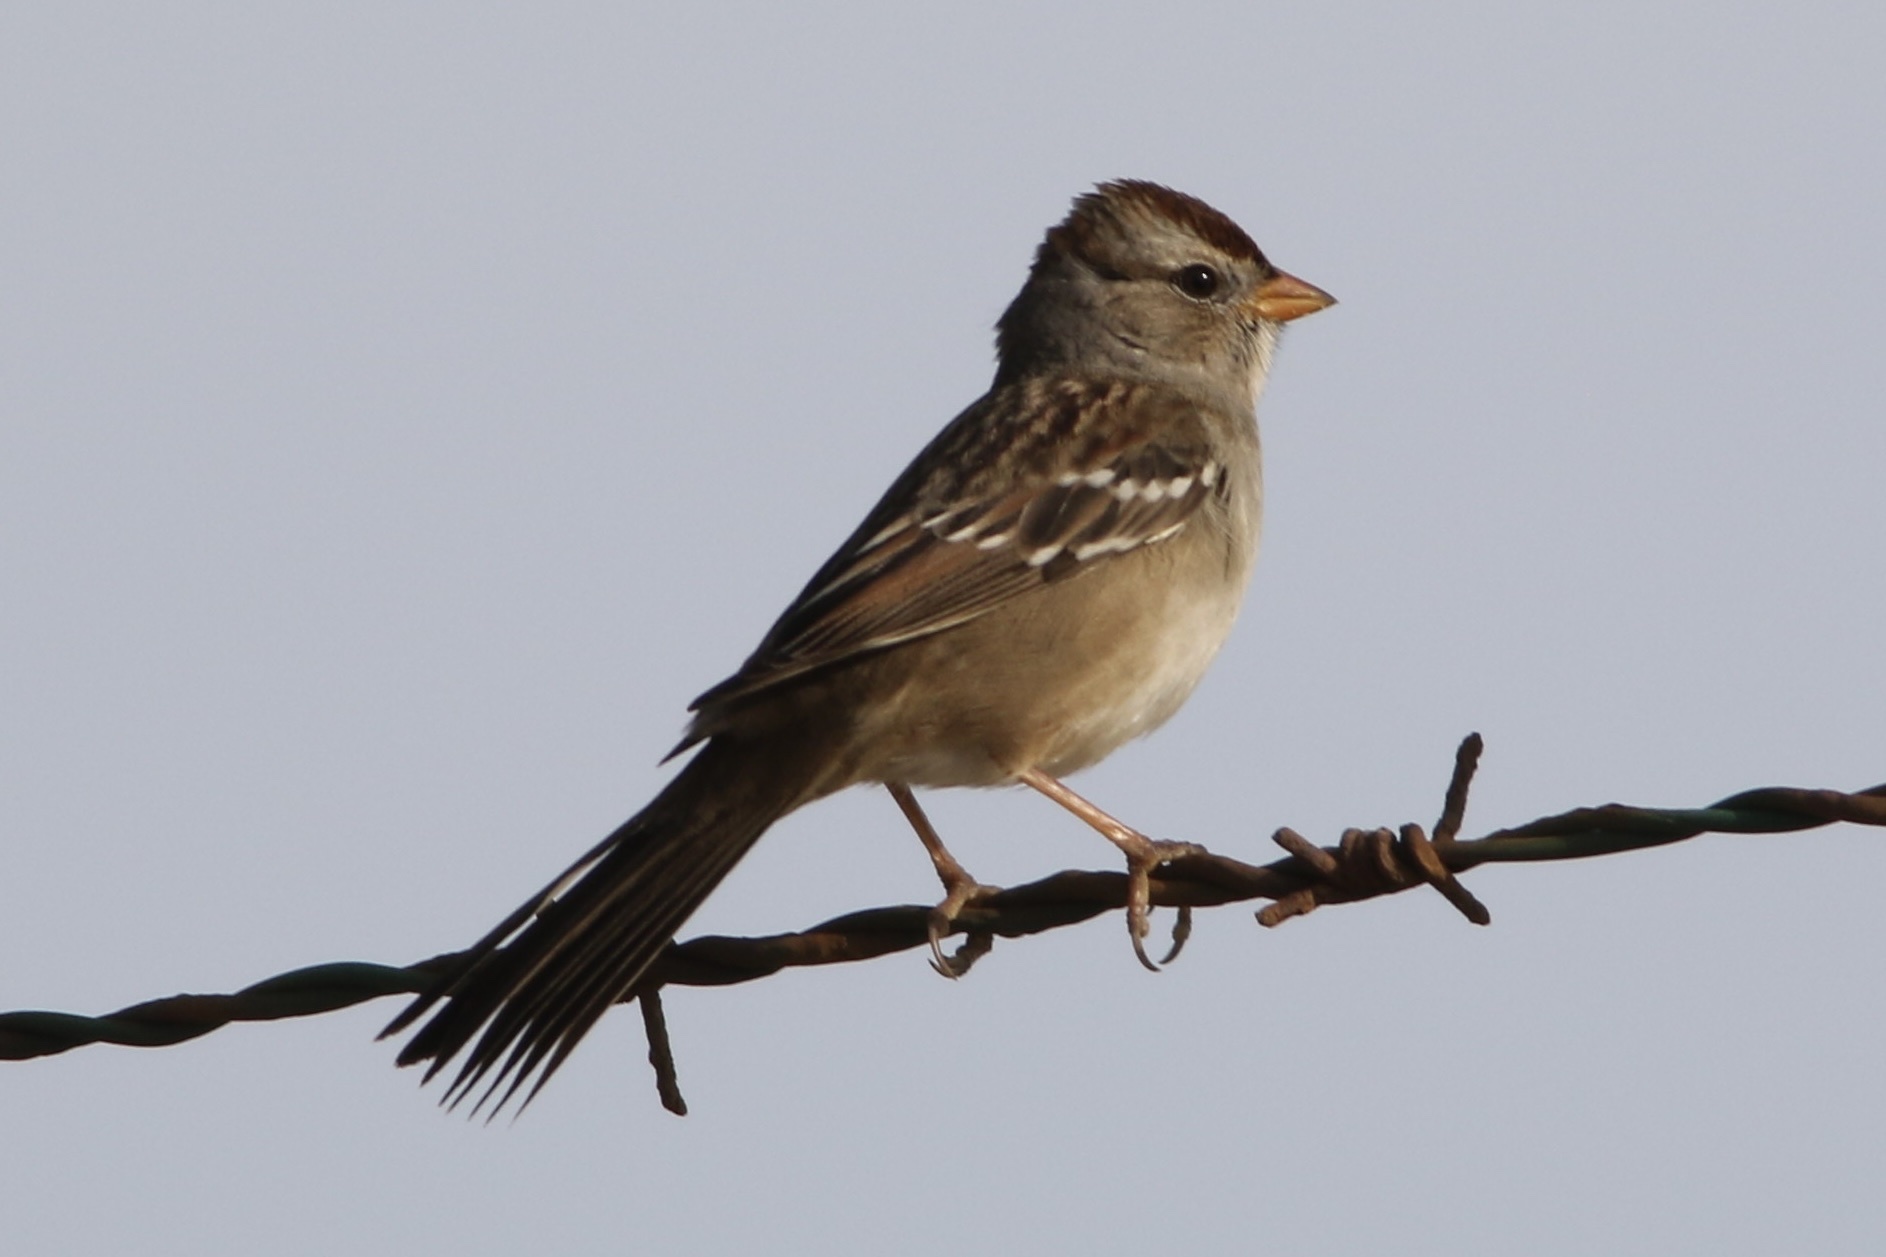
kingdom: Animalia
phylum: Chordata
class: Aves
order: Passeriformes
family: Passerellidae
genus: Zonotrichia
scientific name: Zonotrichia leucophrys
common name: White-crowned sparrow
